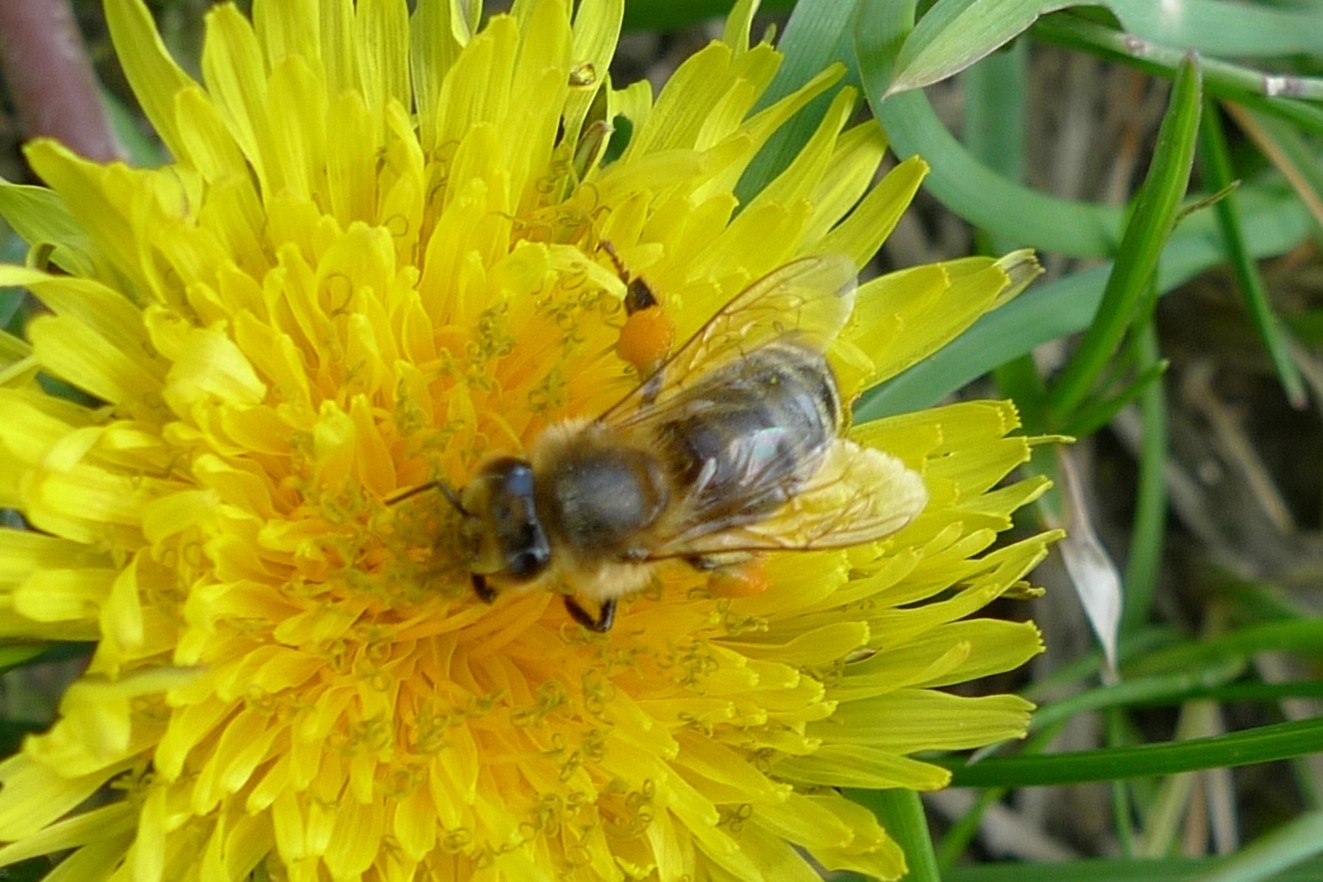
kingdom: Animalia
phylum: Arthropoda
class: Insecta
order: Hymenoptera
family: Apidae
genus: Apis
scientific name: Apis mellifera
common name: Honey bee
